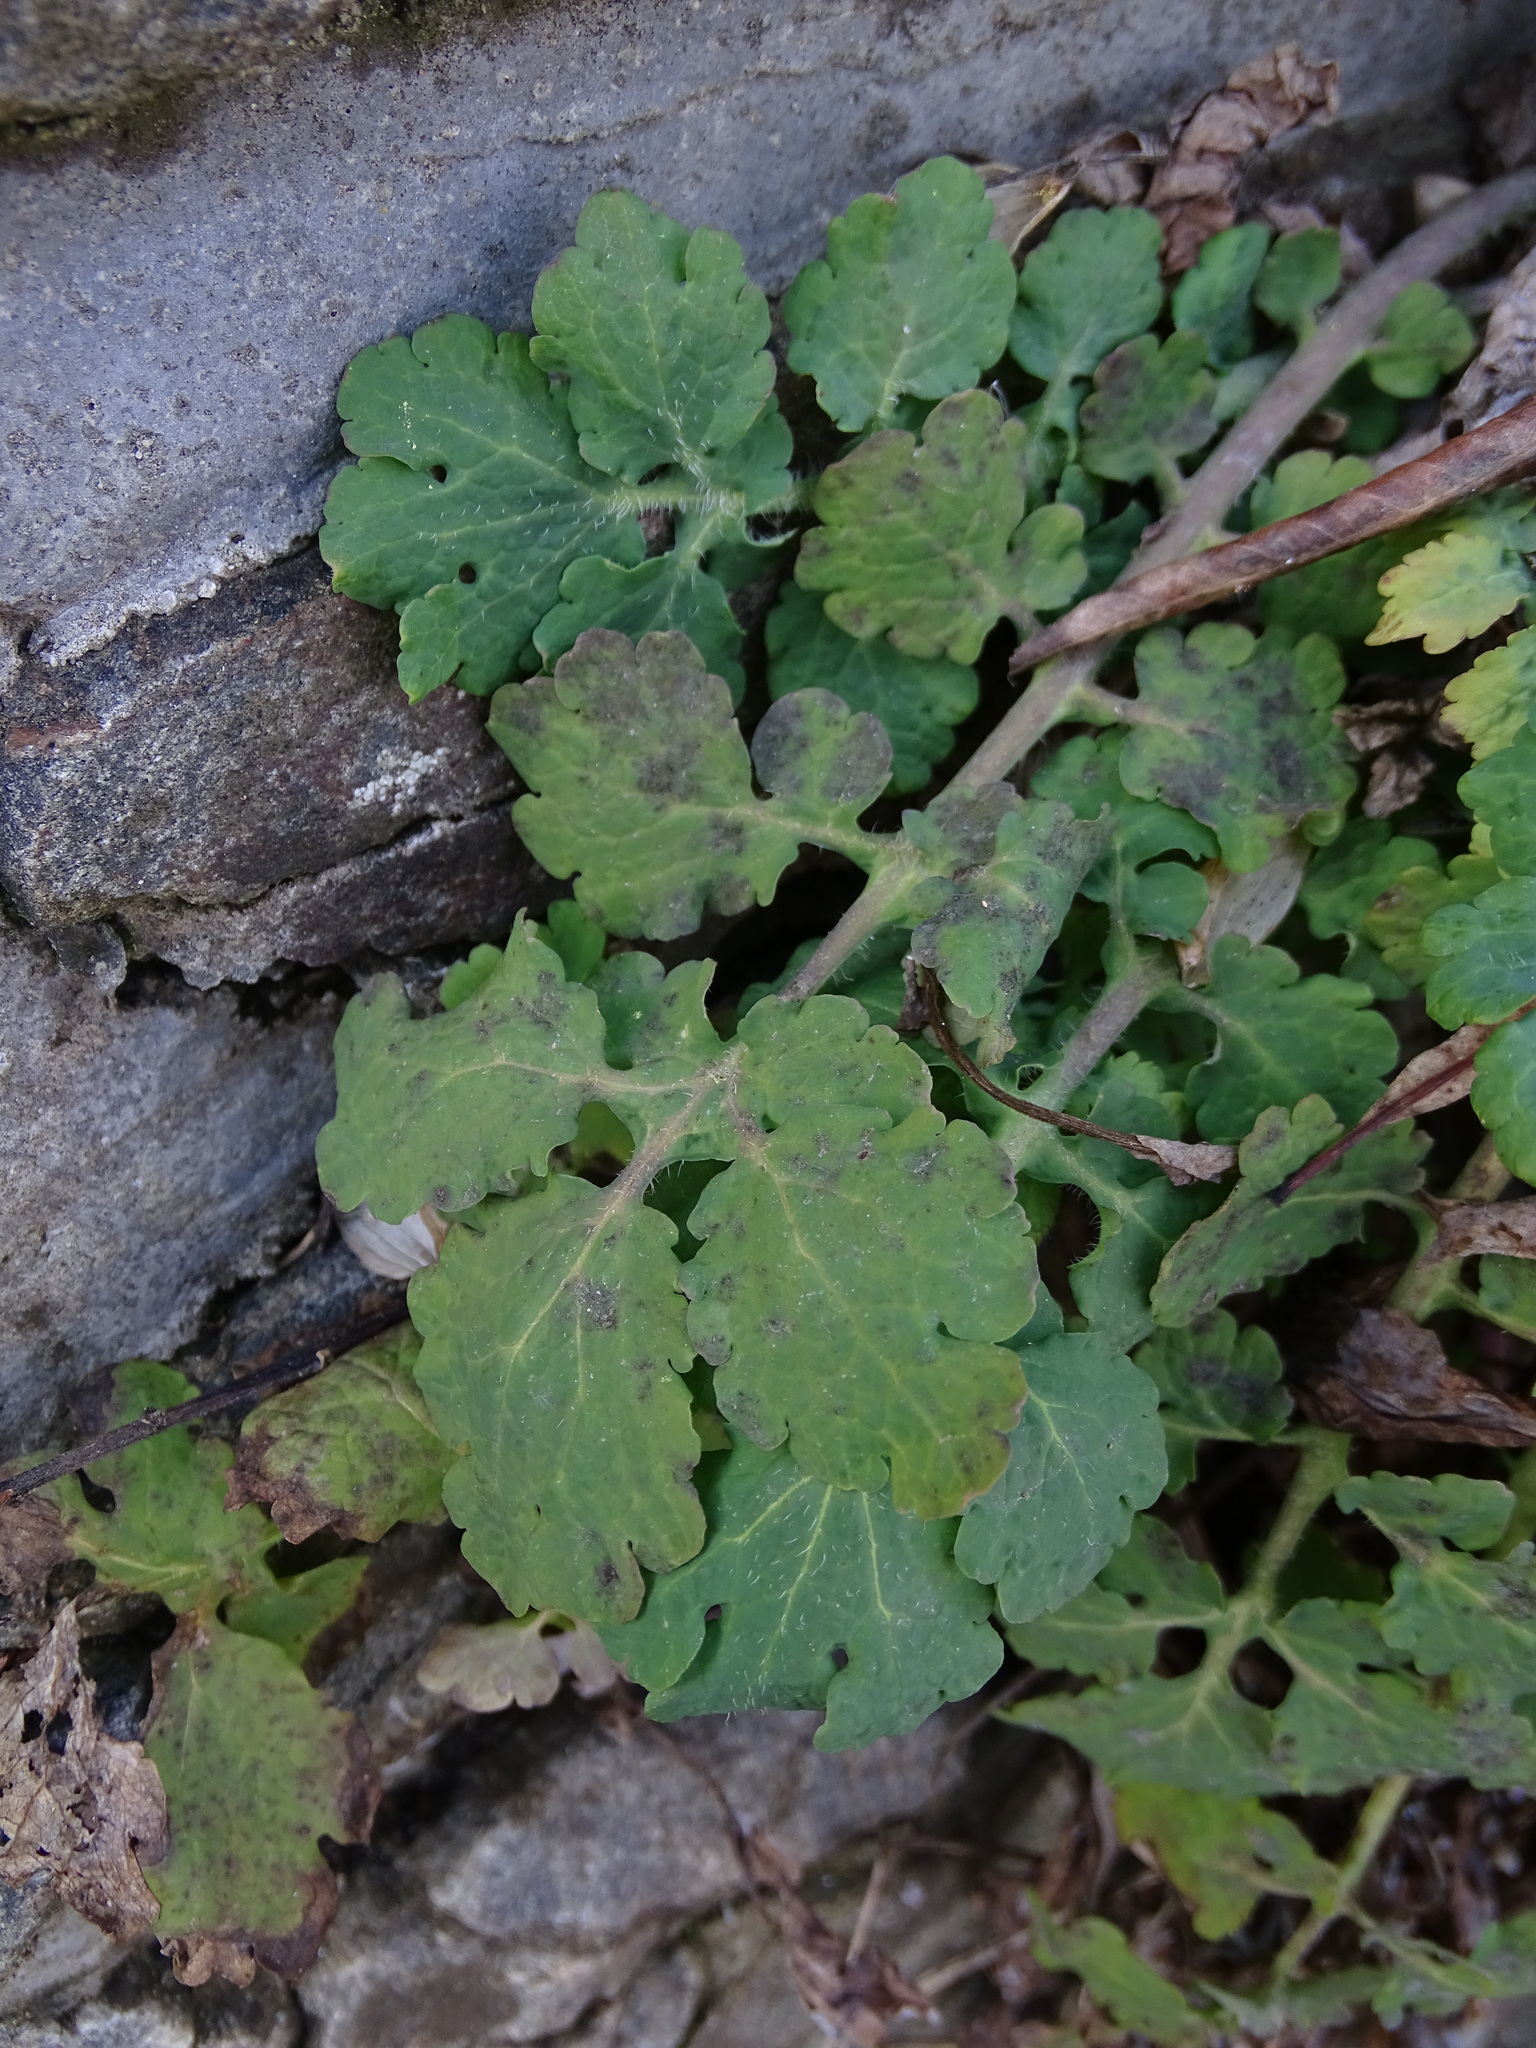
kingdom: Plantae
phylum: Tracheophyta
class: Magnoliopsida
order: Ranunculales
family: Papaveraceae
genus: Chelidonium
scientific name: Chelidonium majus
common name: Greater celandine
